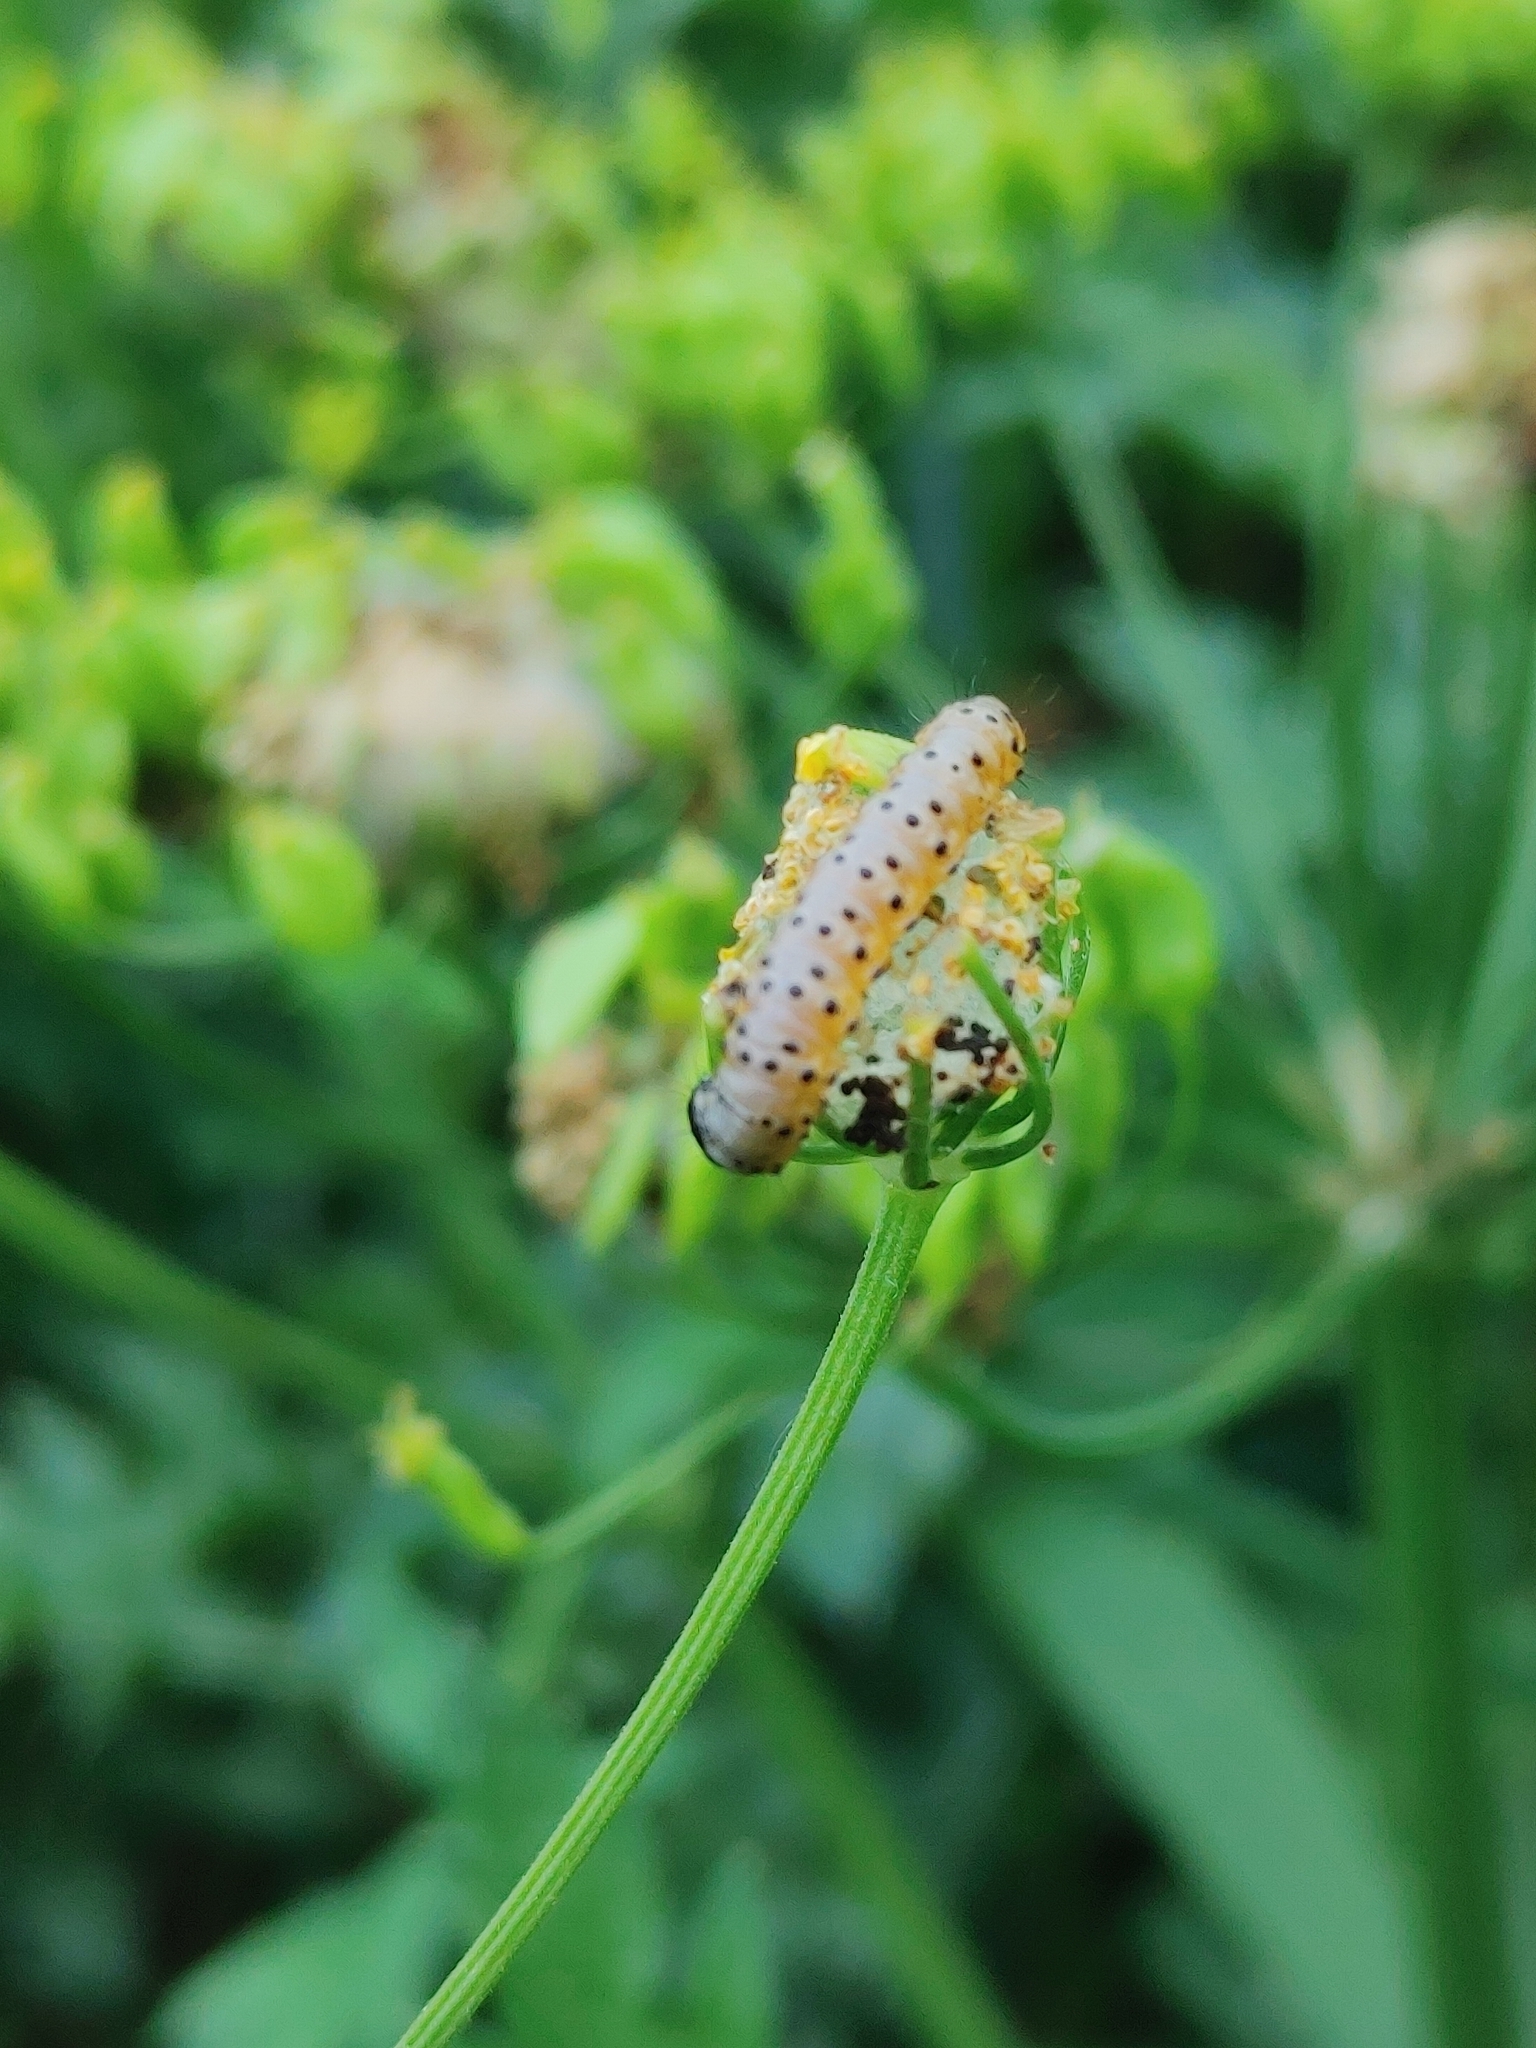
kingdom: Animalia
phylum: Arthropoda
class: Insecta
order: Lepidoptera
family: Depressariidae
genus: Depressaria
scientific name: Depressaria radiella
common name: Parsnip moth
